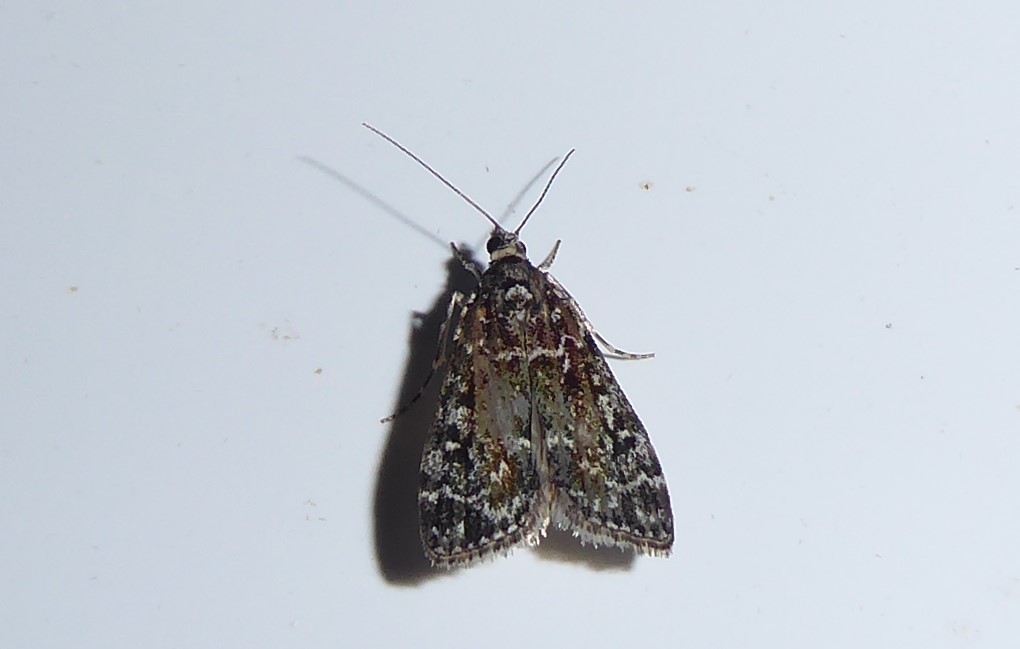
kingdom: Animalia
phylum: Arthropoda
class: Insecta
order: Lepidoptera
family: Crambidae
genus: Eudonia
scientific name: Eudonia philerga
